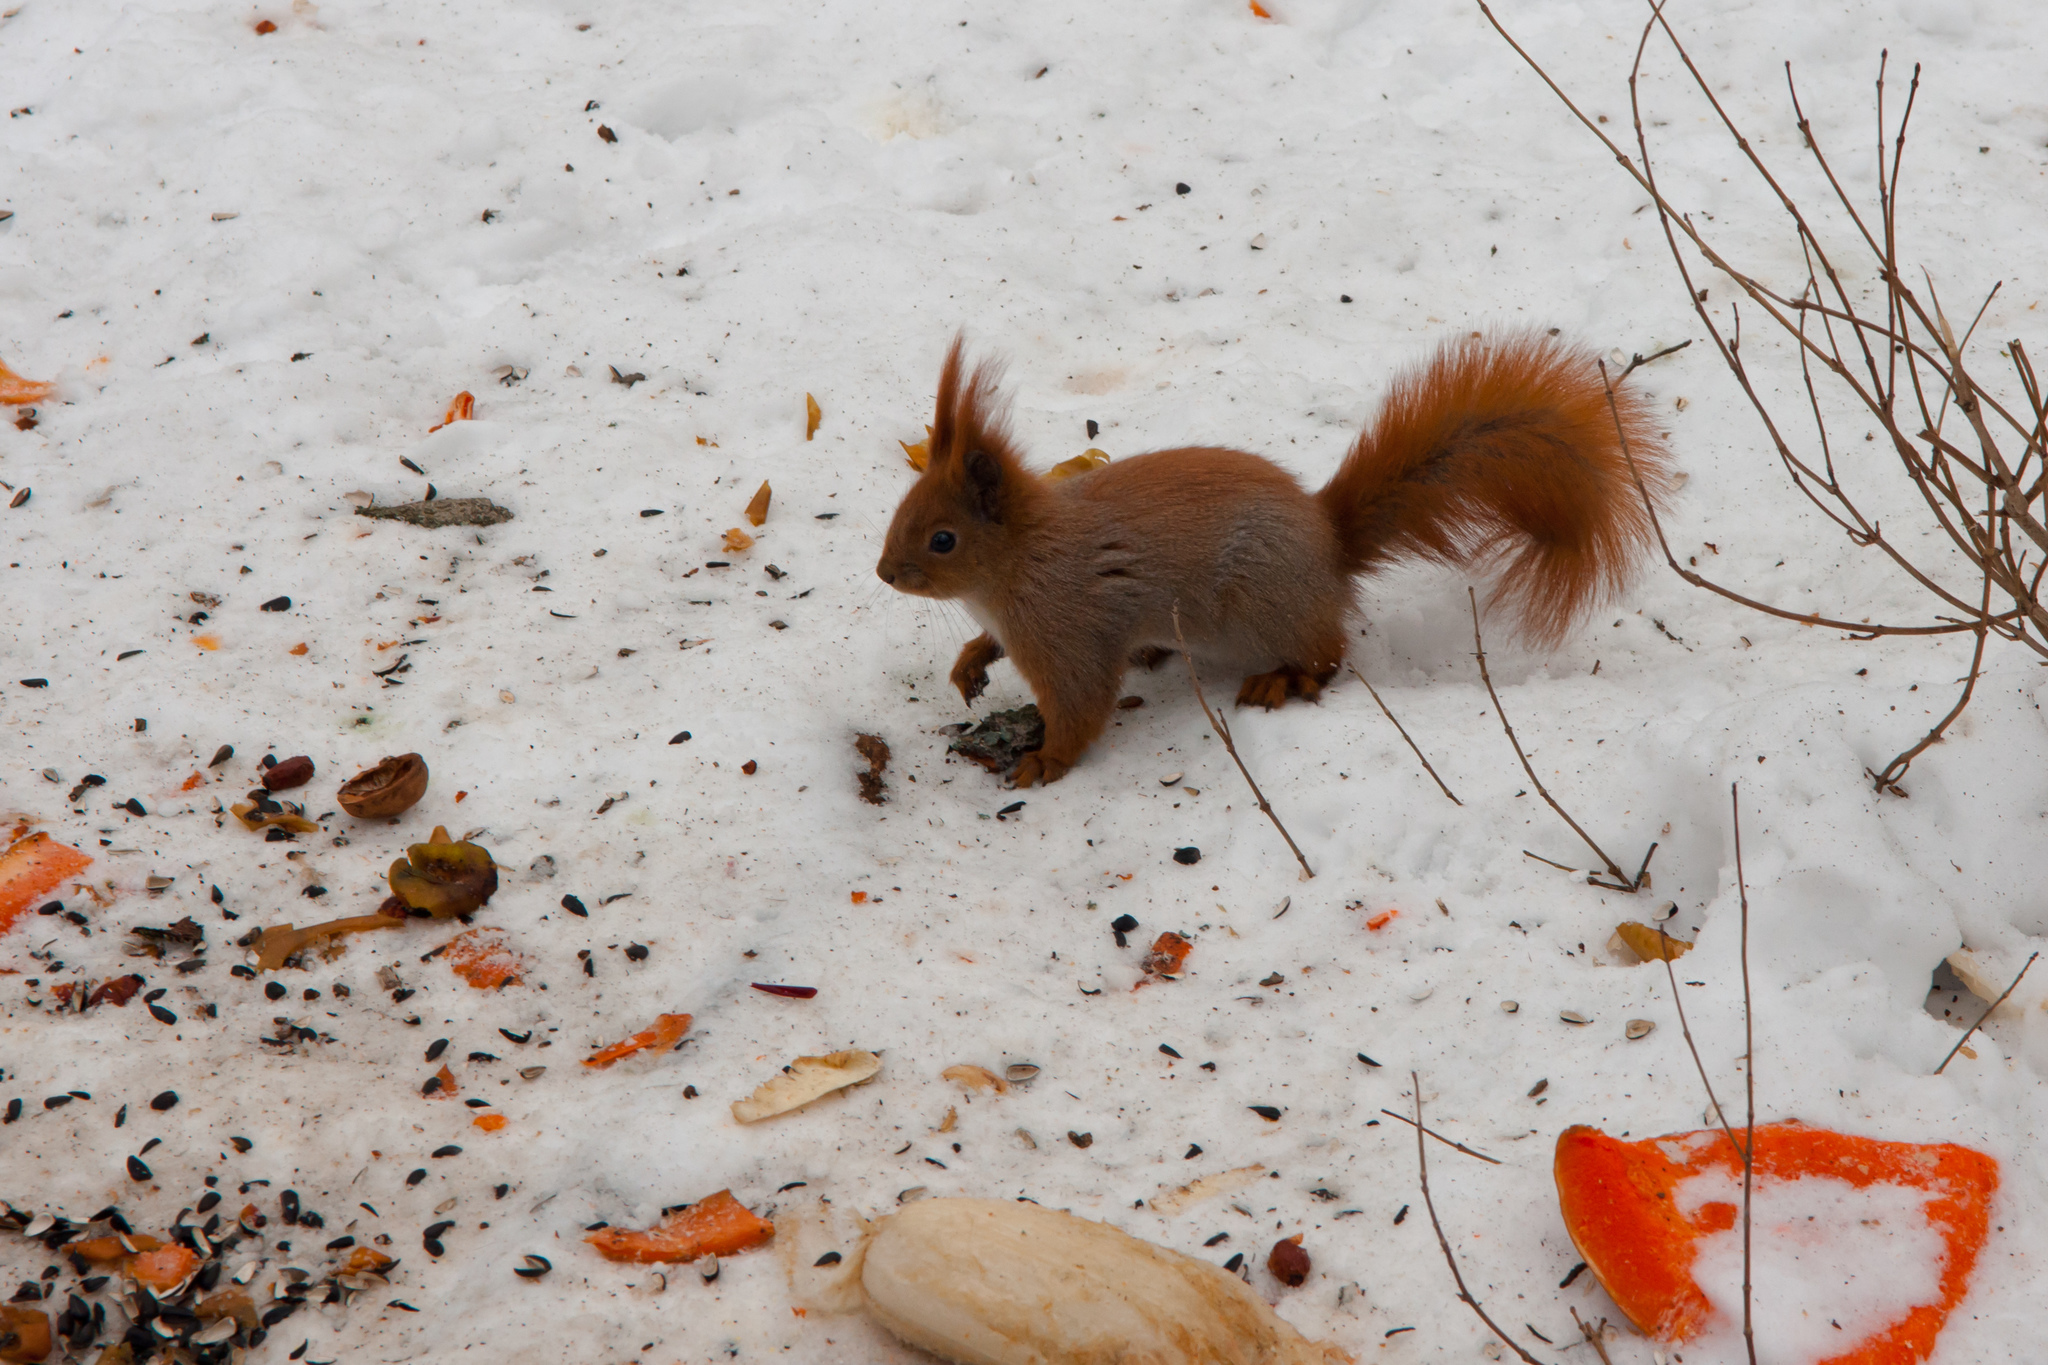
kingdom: Animalia
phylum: Chordata
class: Mammalia
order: Rodentia
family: Sciuridae
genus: Sciurus
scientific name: Sciurus vulgaris
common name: Eurasian red squirrel
